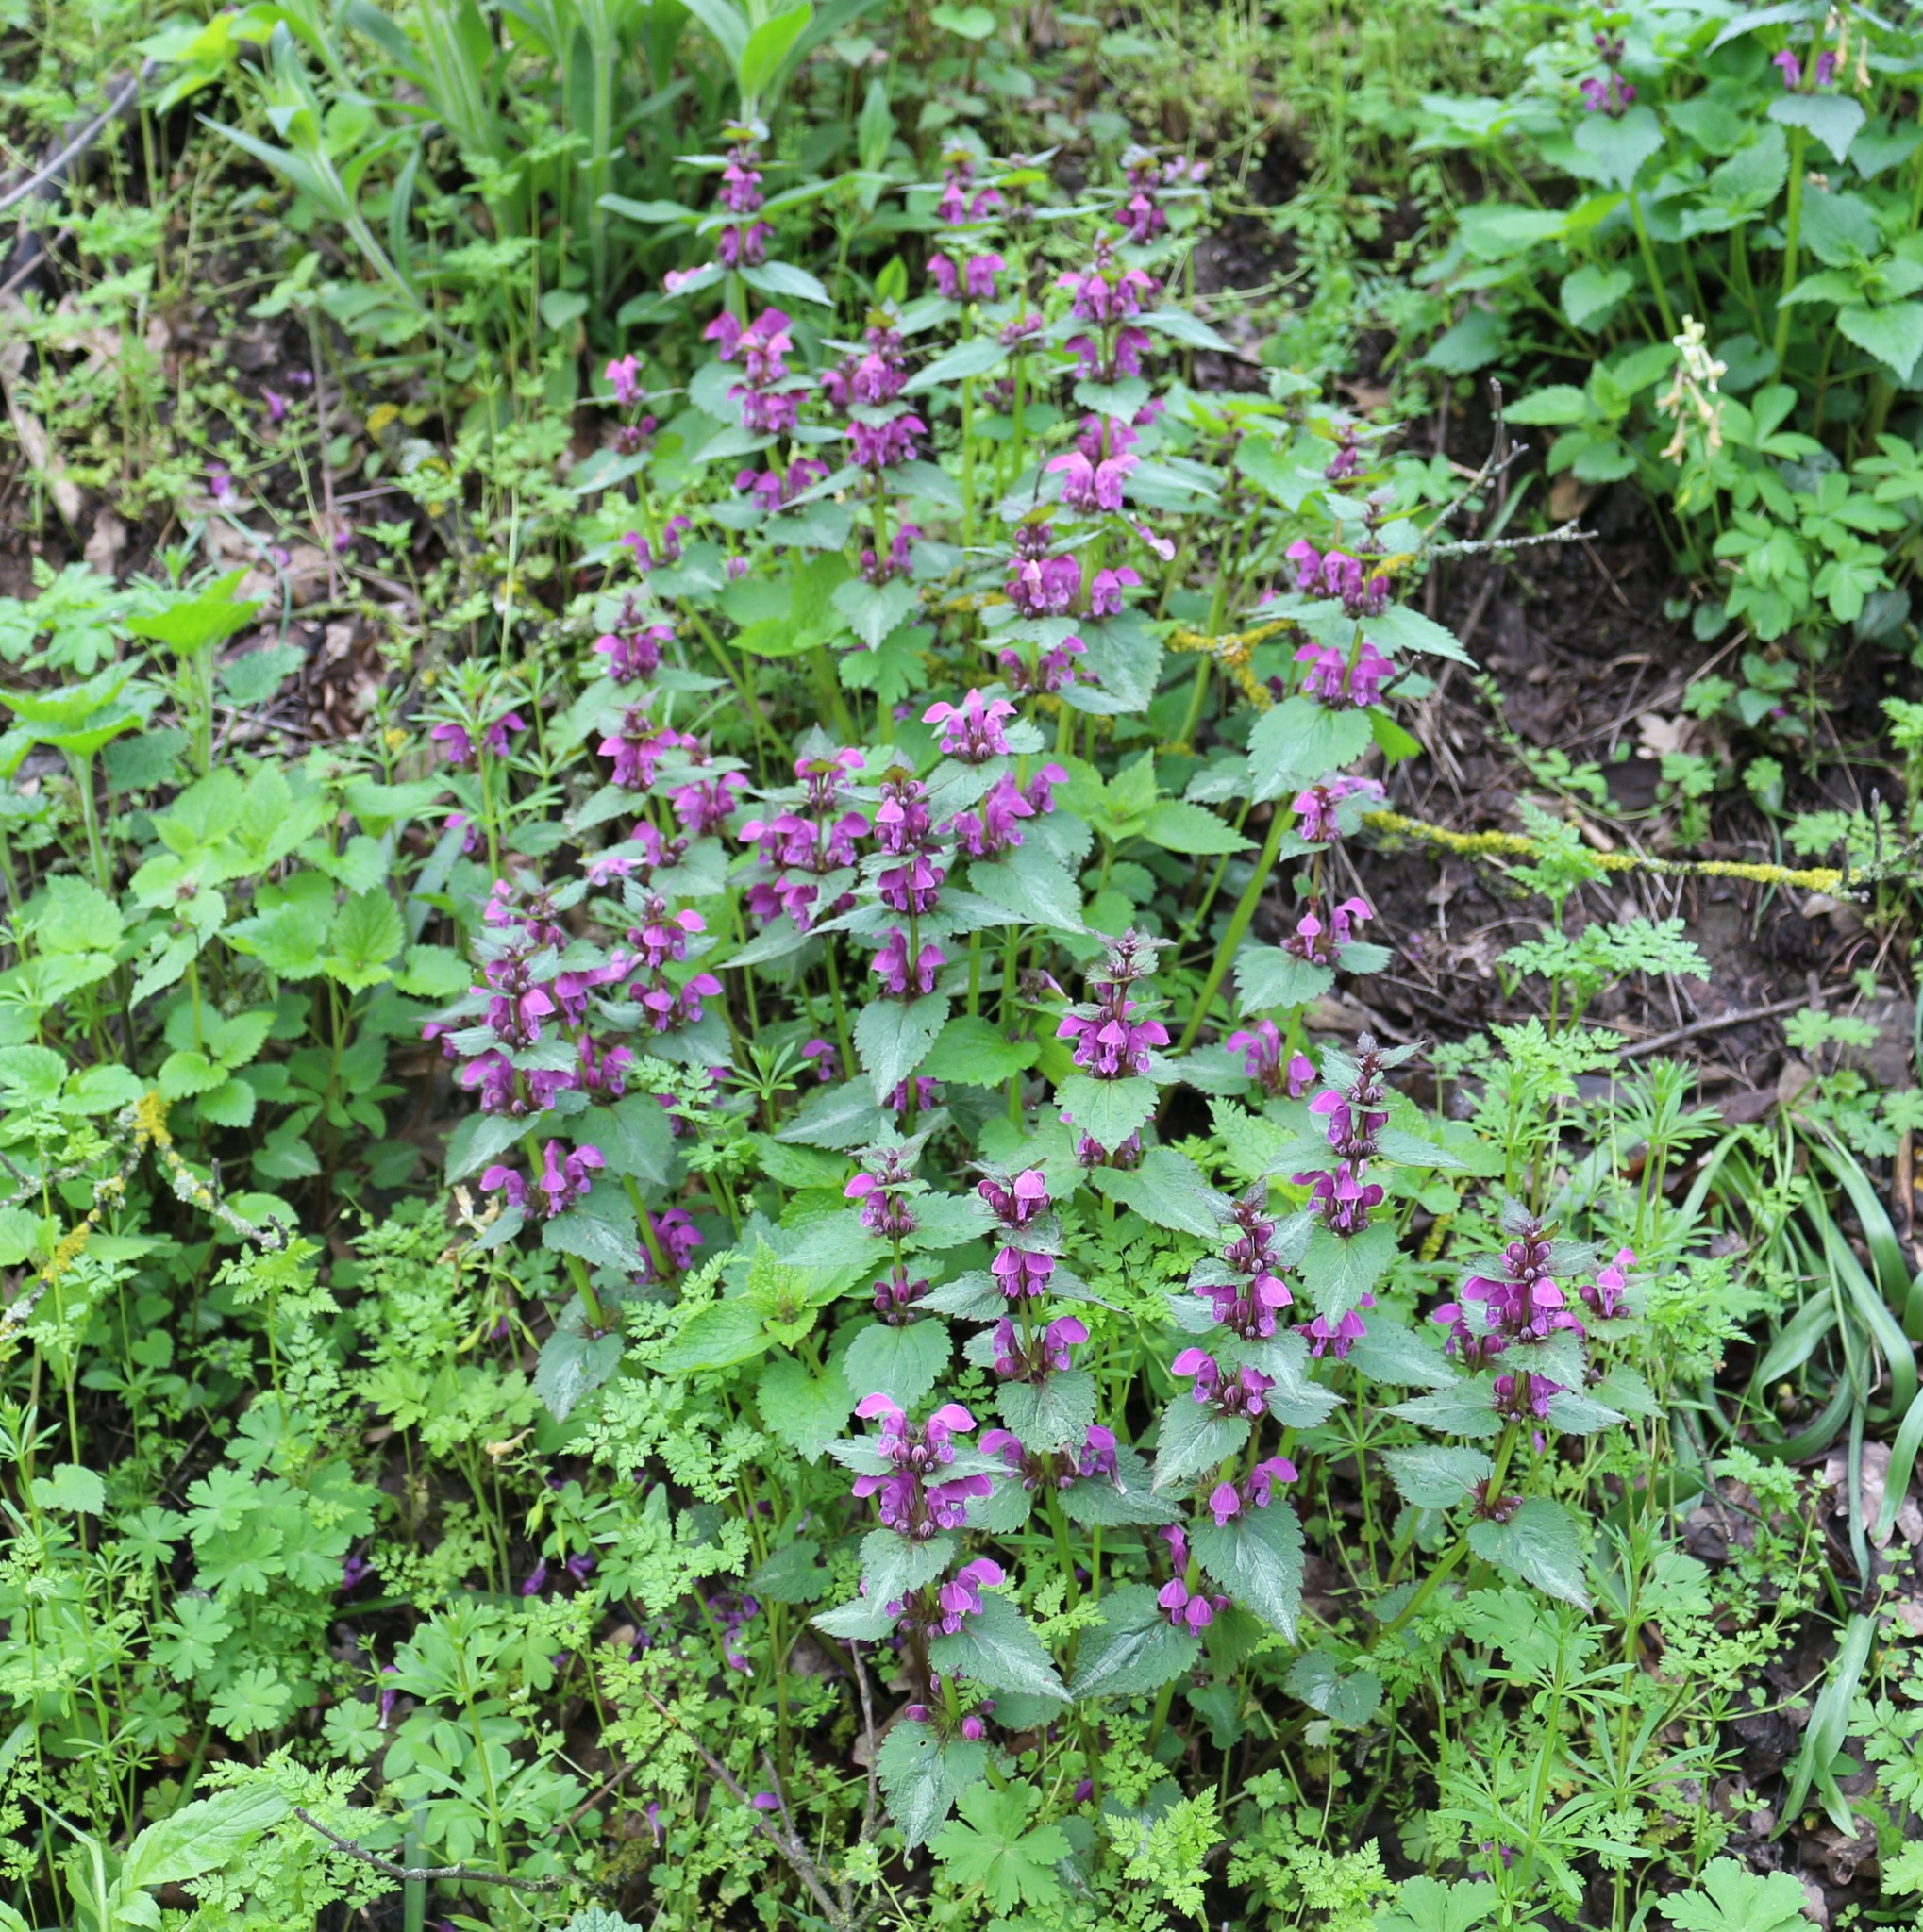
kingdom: Plantae
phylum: Tracheophyta
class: Magnoliopsida
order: Lamiales
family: Lamiaceae
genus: Lamium
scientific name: Lamium maculatum
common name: Spotted dead-nettle
